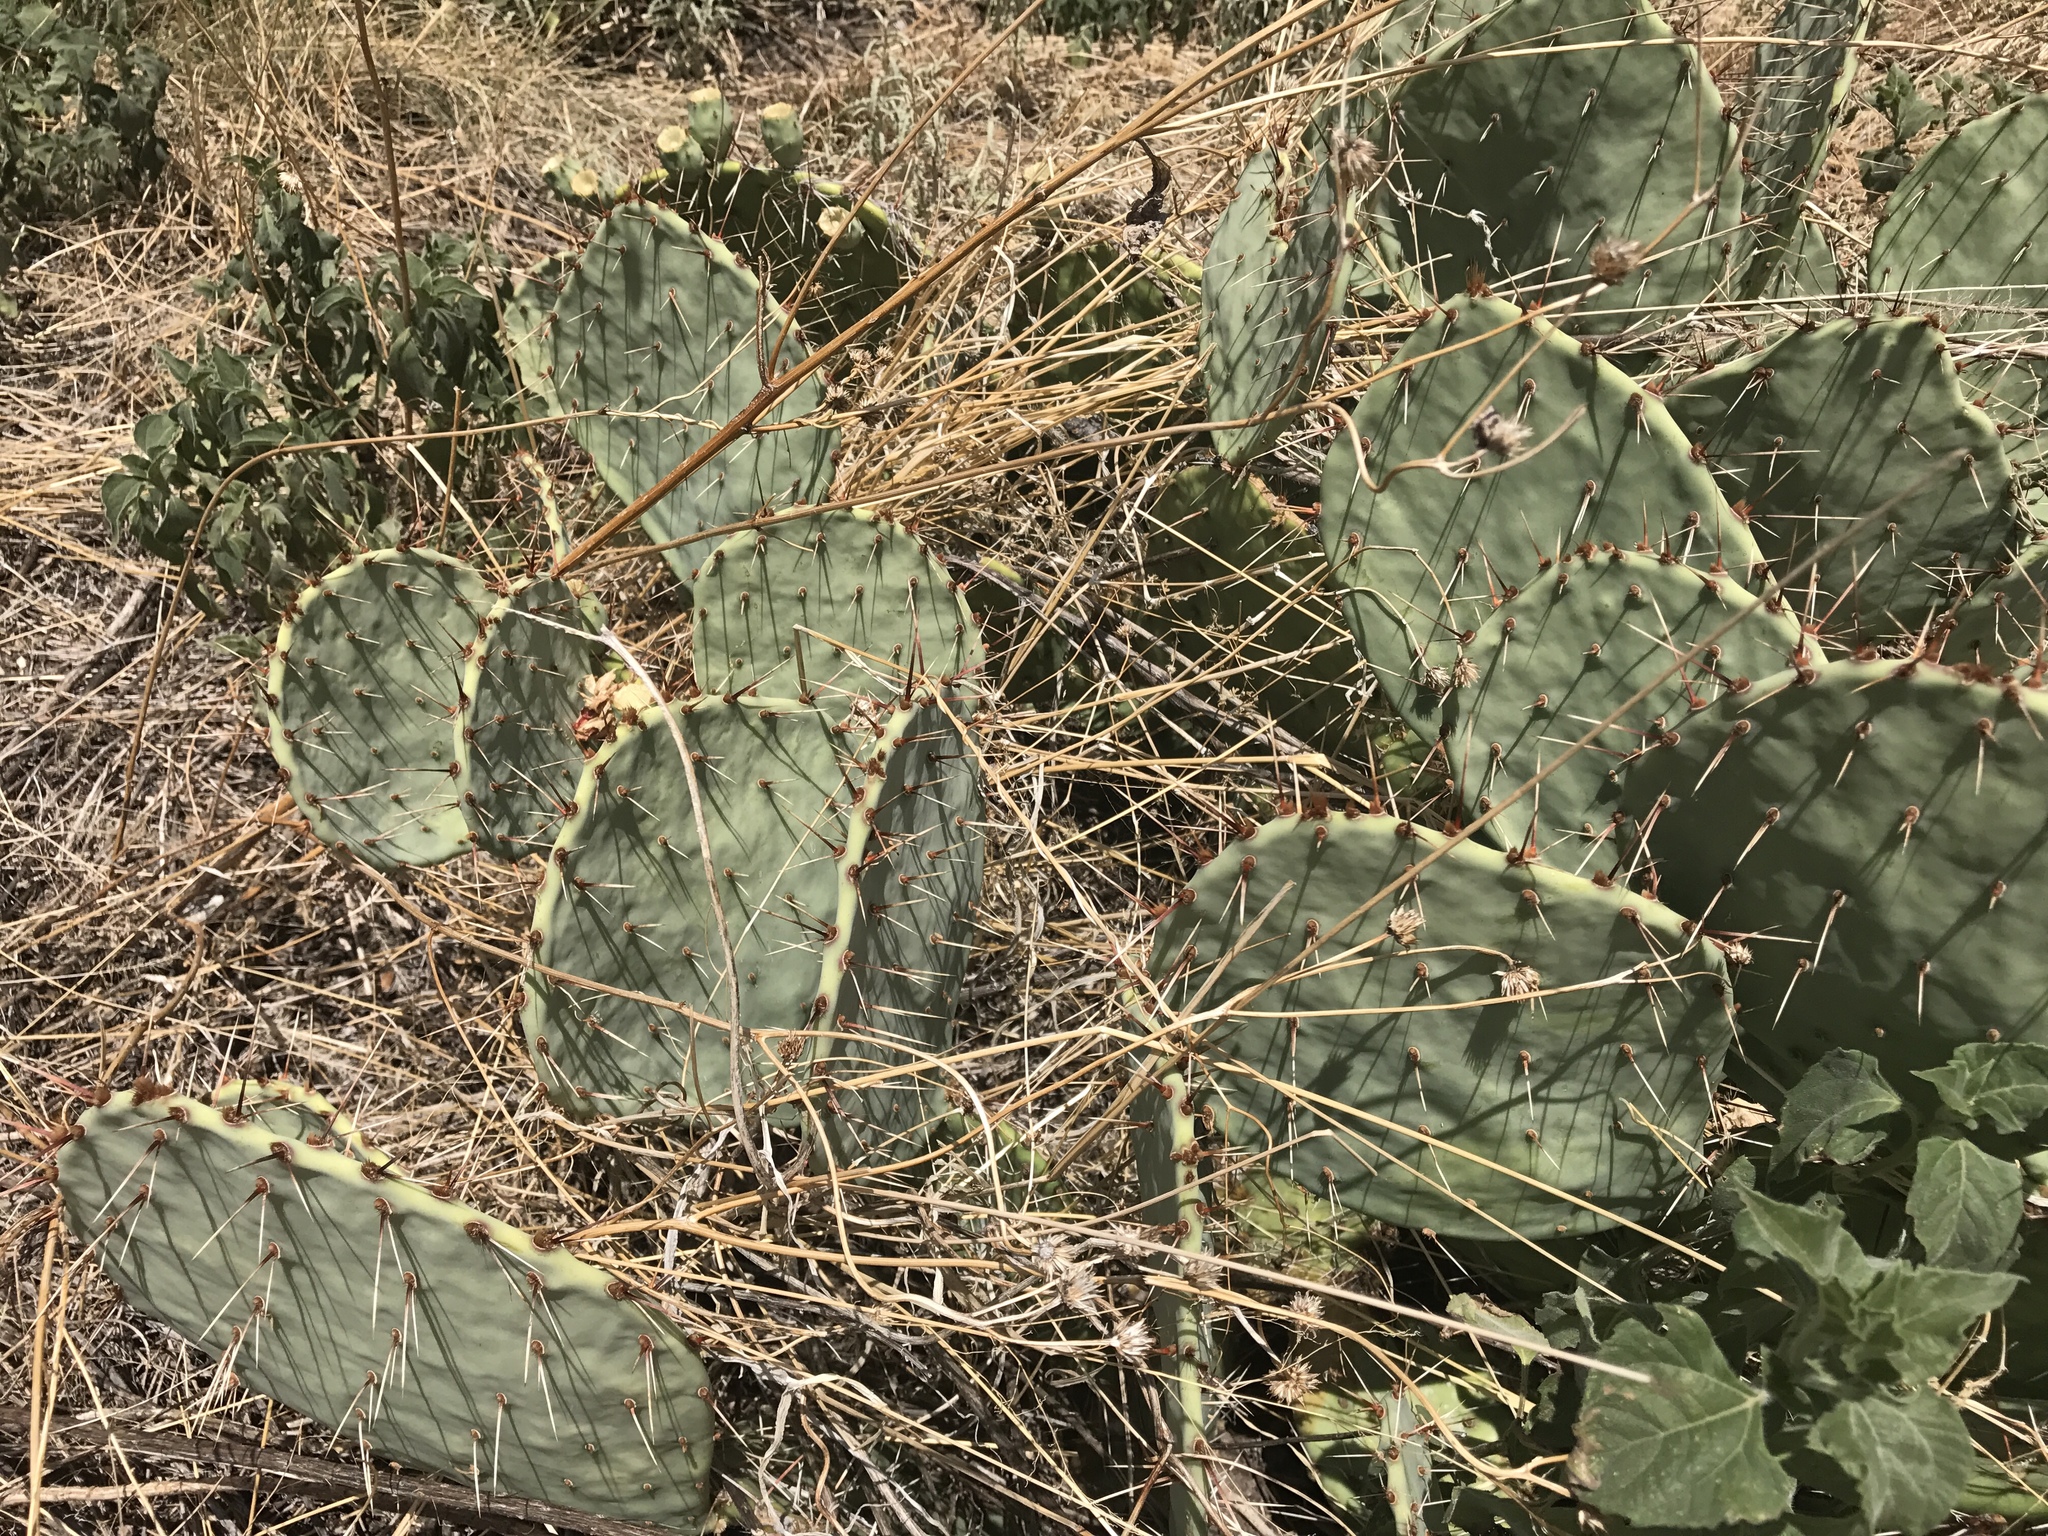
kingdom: Plantae
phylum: Tracheophyta
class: Magnoliopsida
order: Caryophyllales
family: Cactaceae
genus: Opuntia
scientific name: Opuntia engelmannii
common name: Cactus-apple
